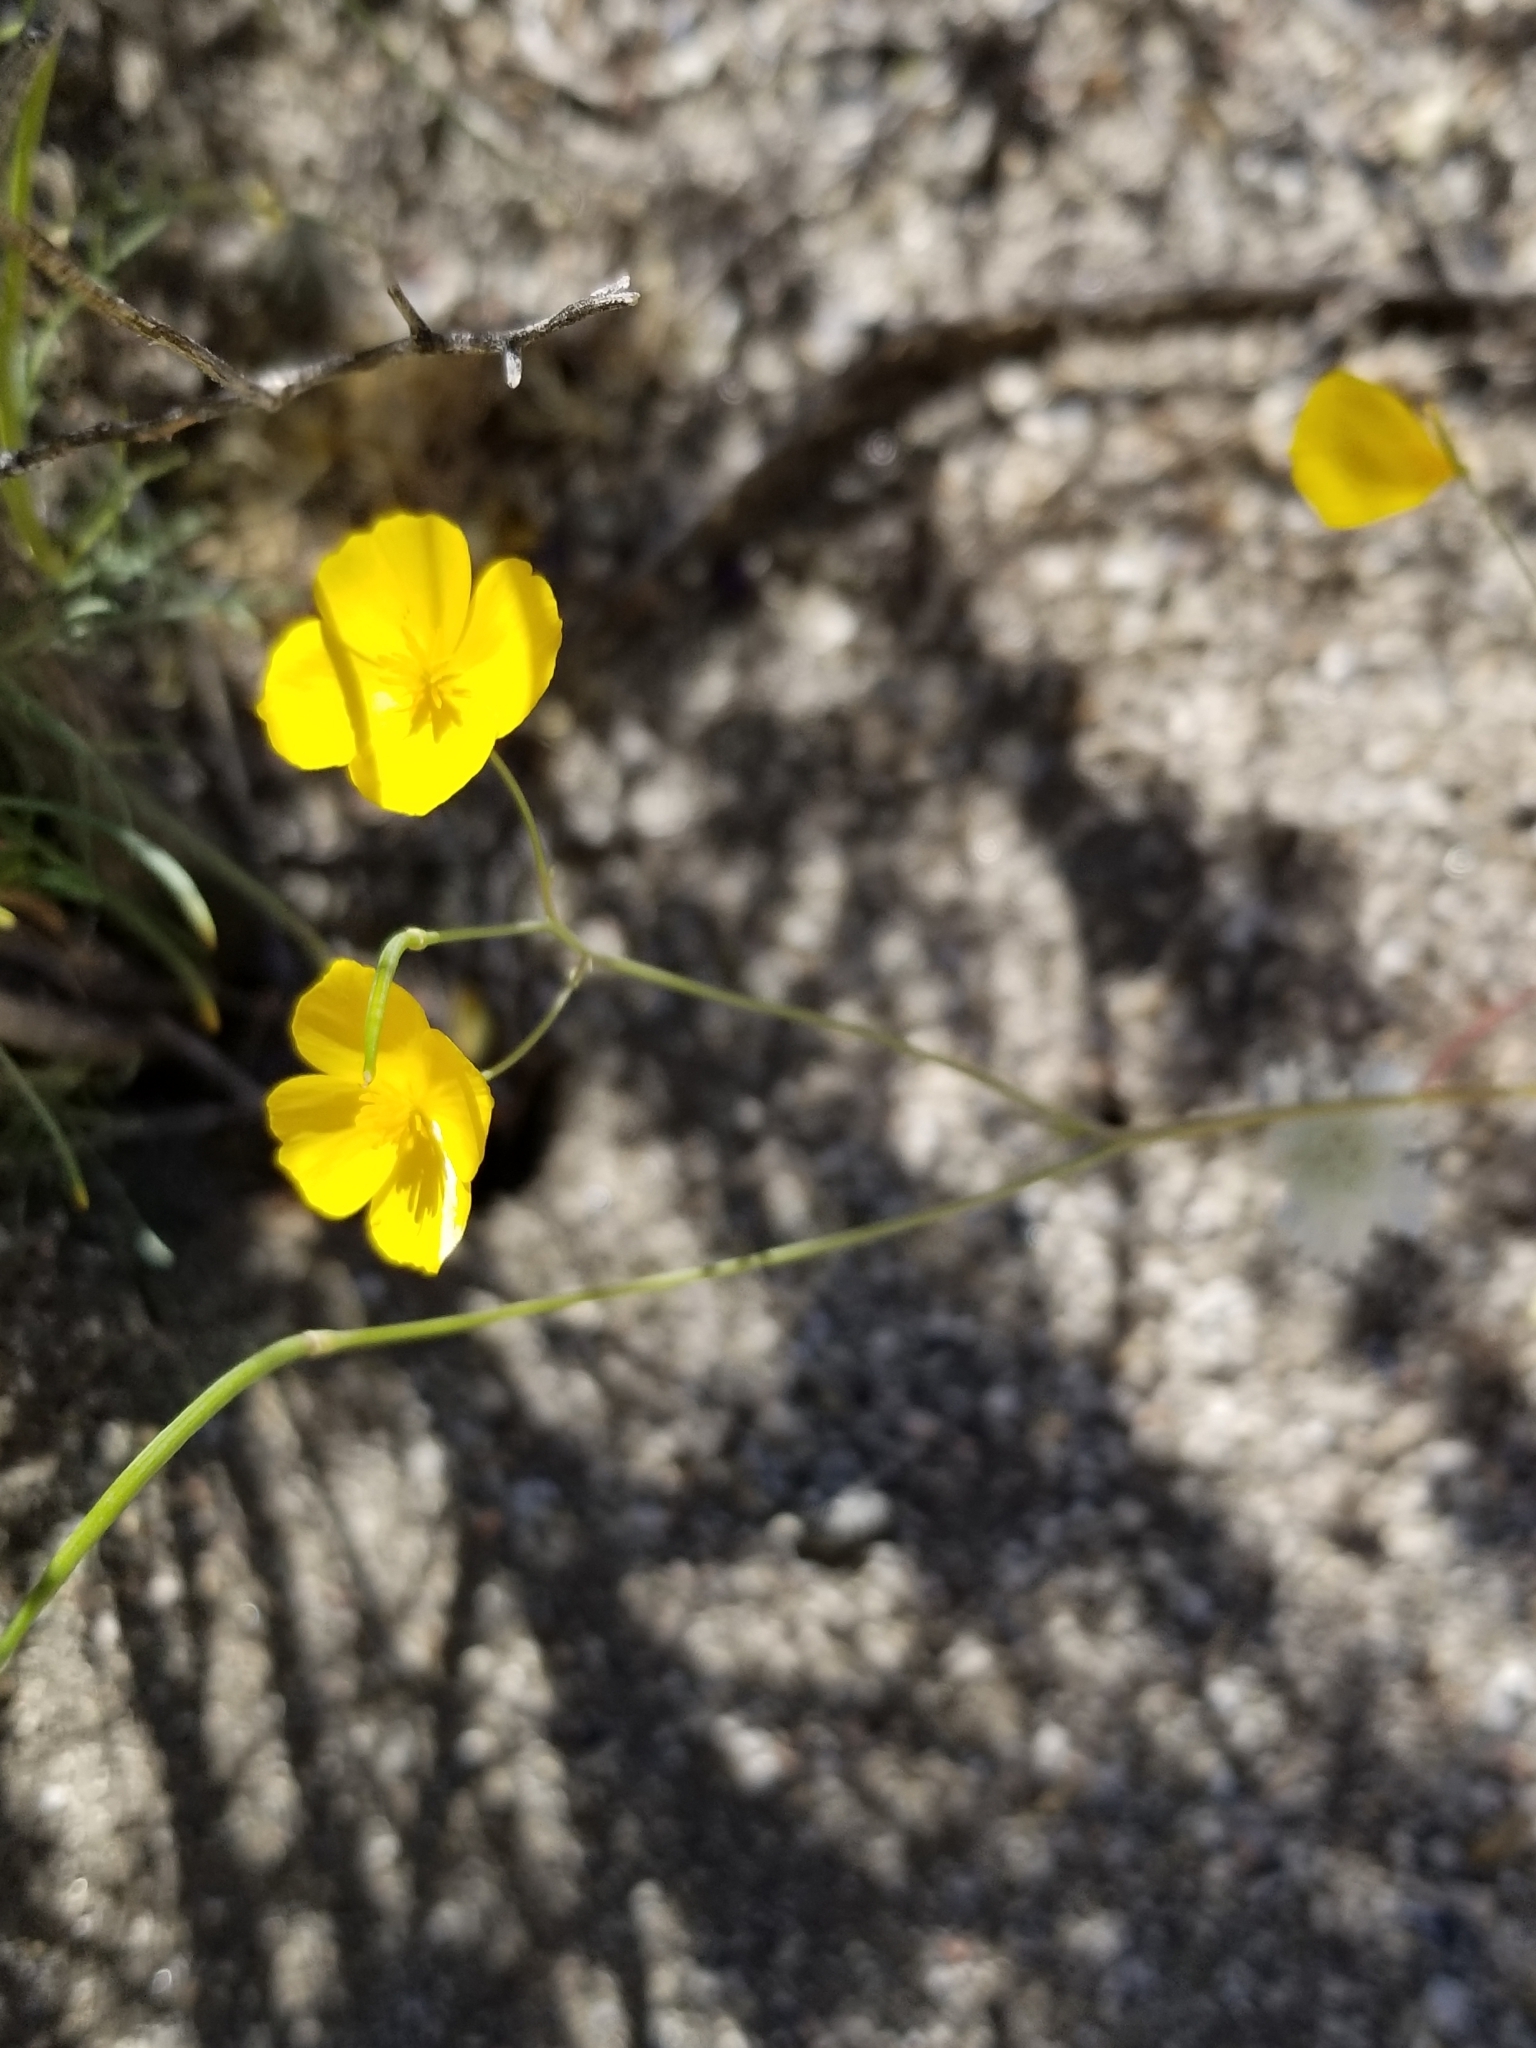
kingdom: Plantae
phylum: Tracheophyta
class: Magnoliopsida
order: Ranunculales
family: Papaveraceae
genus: Eschscholzia
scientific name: Eschscholzia parishii
